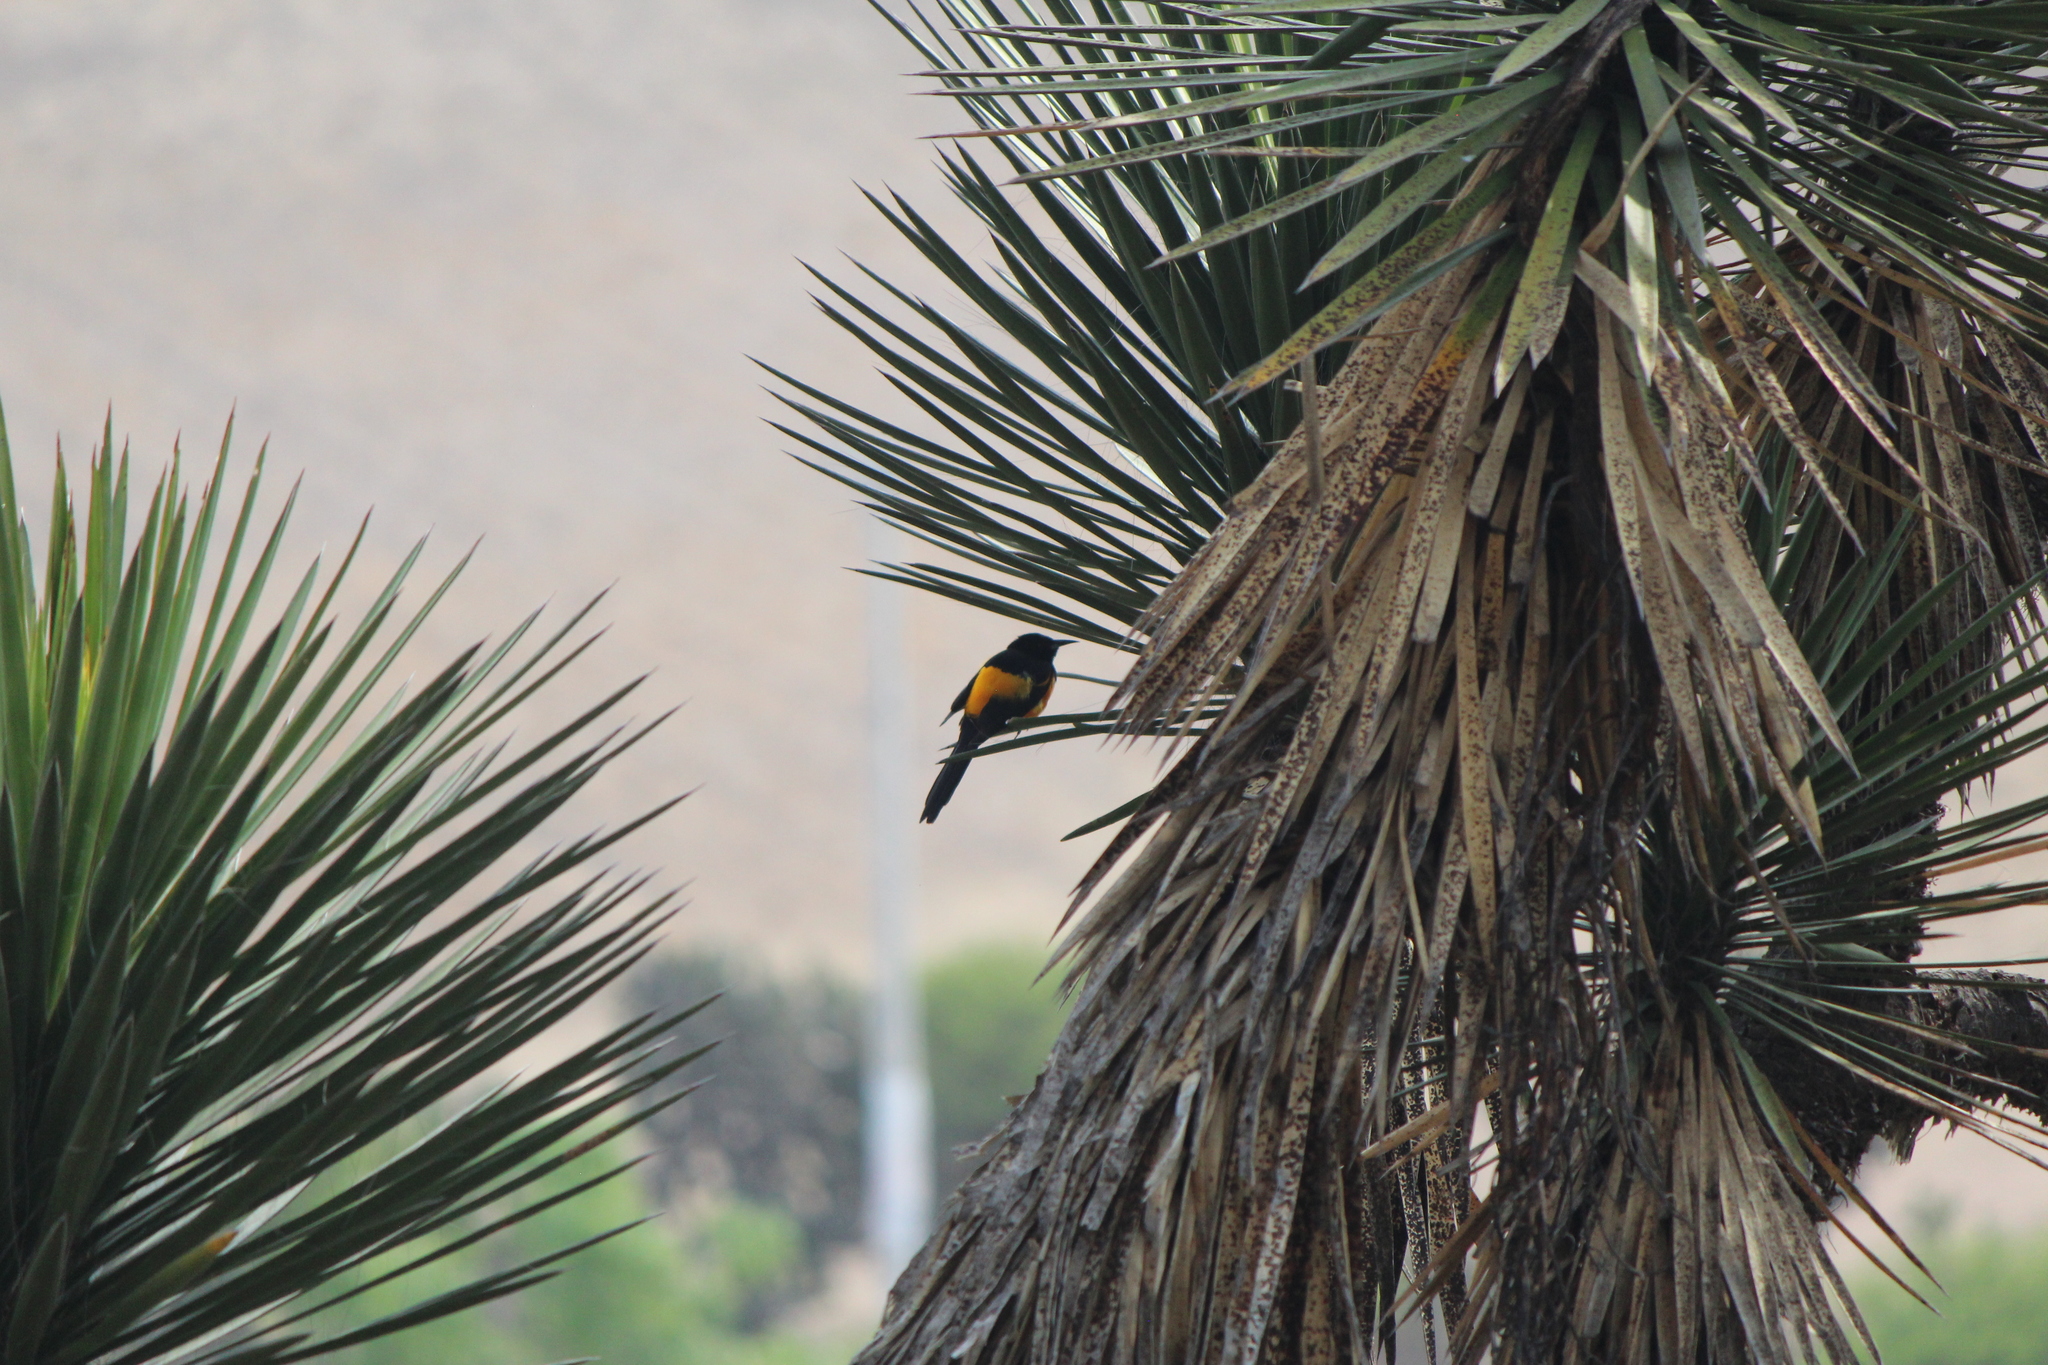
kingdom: Animalia
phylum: Chordata
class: Aves
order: Passeriformes
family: Icteridae
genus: Icterus
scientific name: Icterus wagleri
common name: Black-vented oriole
